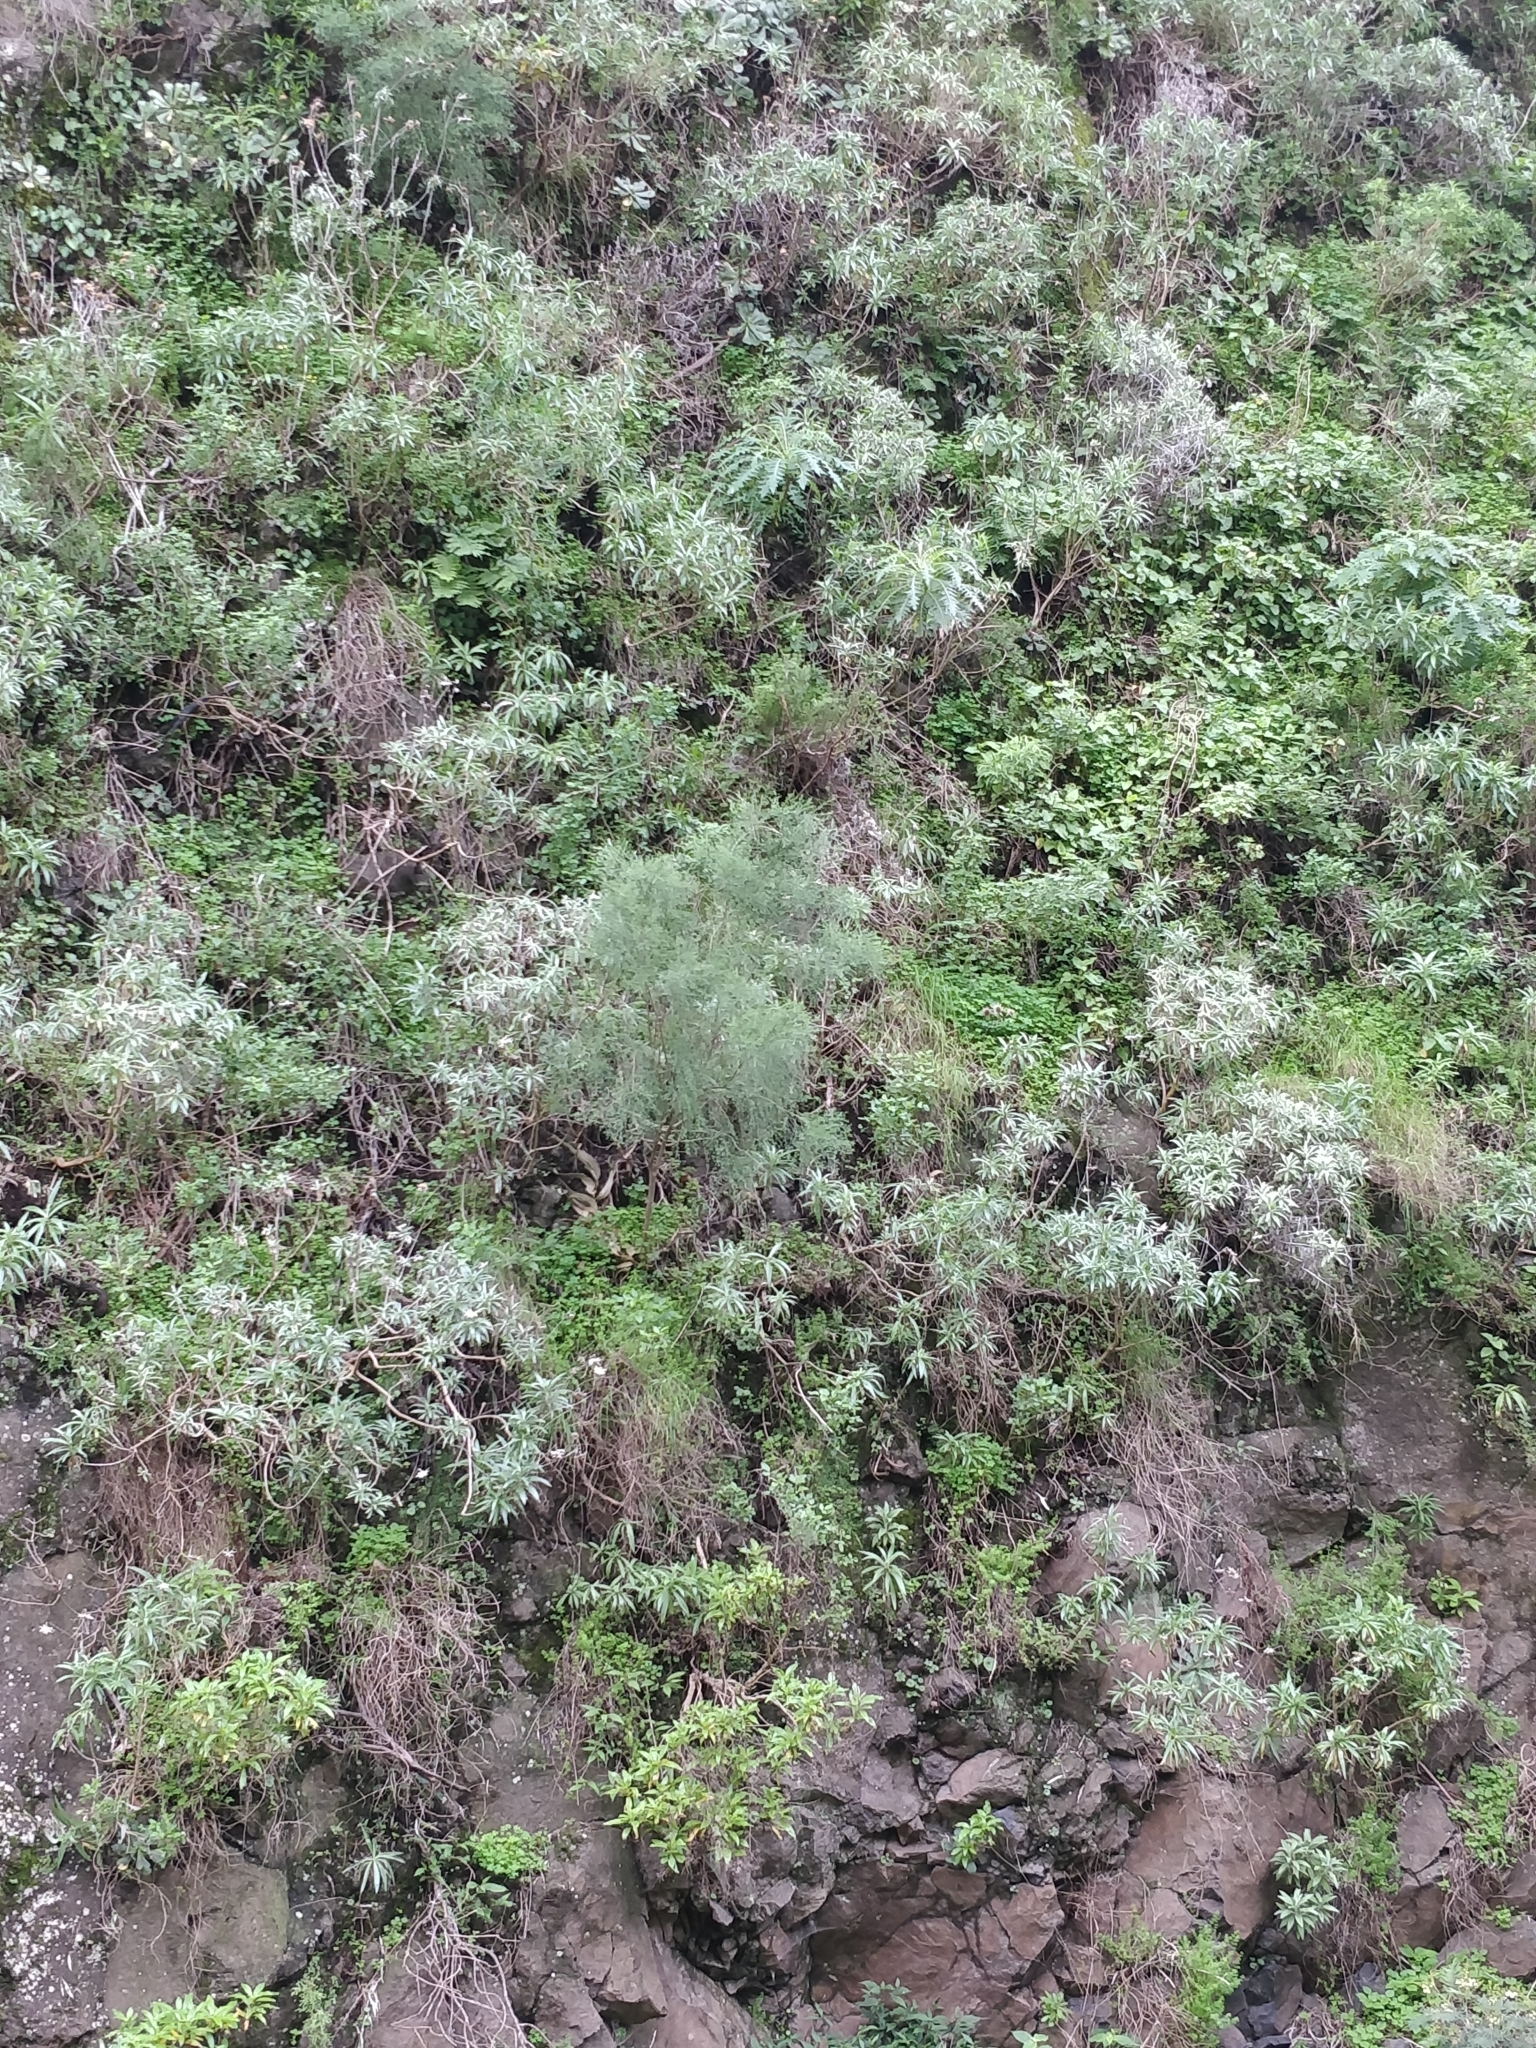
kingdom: Plantae
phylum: Tracheophyta
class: Magnoliopsida
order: Fabales
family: Fabaceae
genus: Genista
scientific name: Genista tenera
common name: Madeira broom
